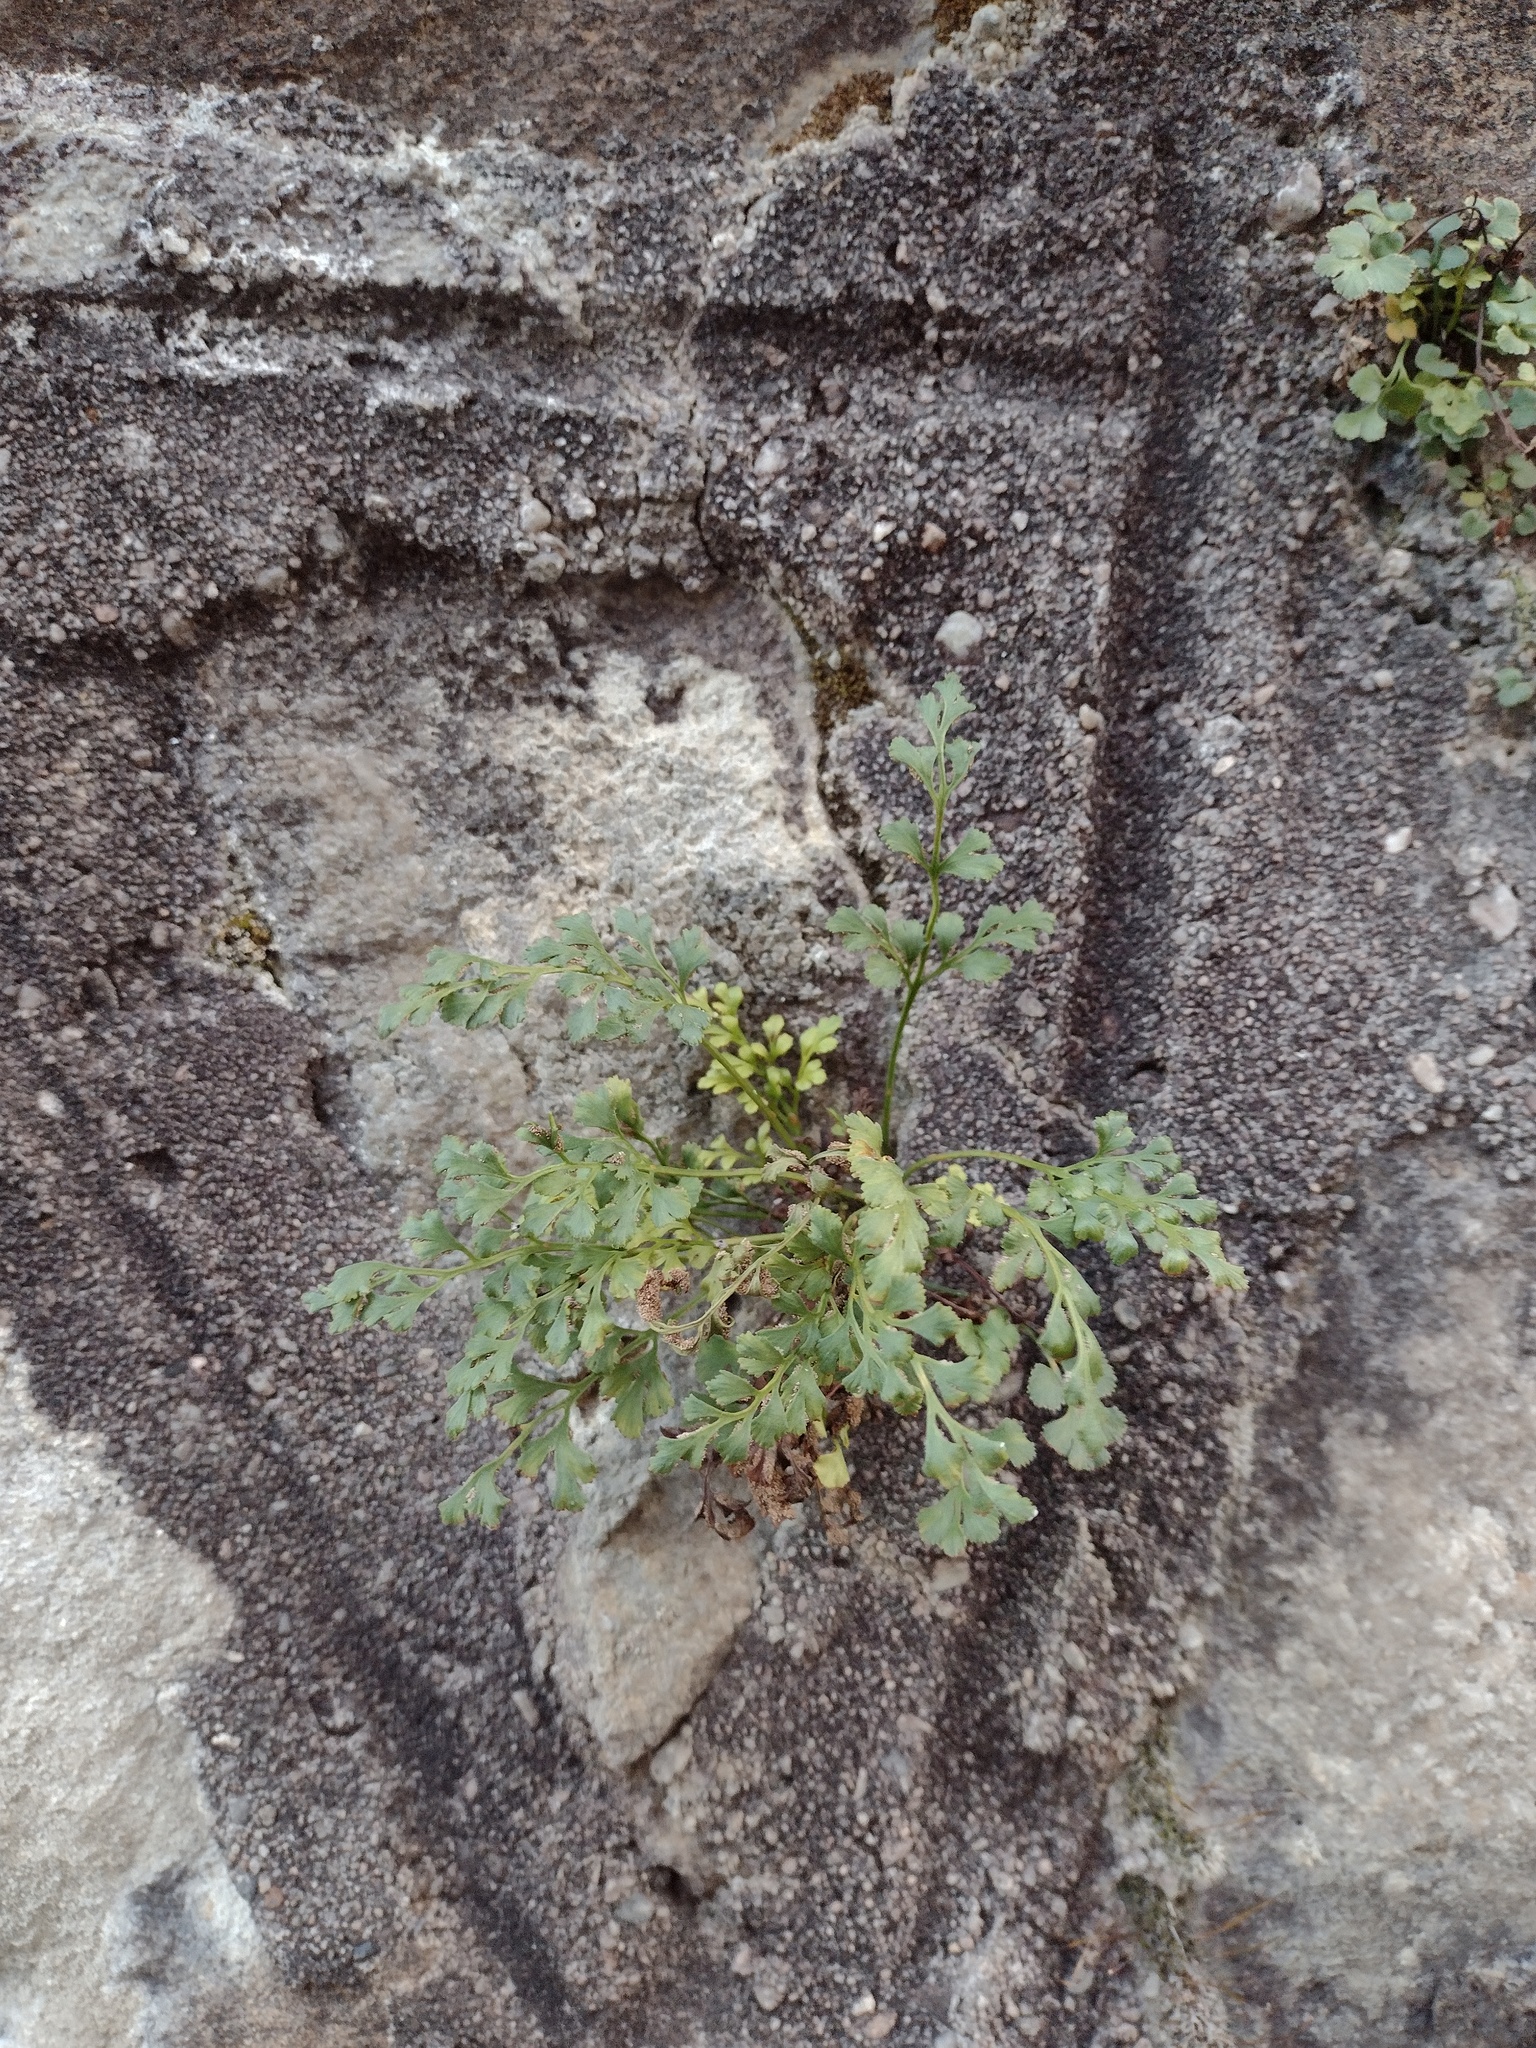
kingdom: Plantae
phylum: Tracheophyta
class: Polypodiopsida
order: Polypodiales
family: Aspleniaceae
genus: Asplenium
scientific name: Asplenium ruta-muraria
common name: Wall-rue
